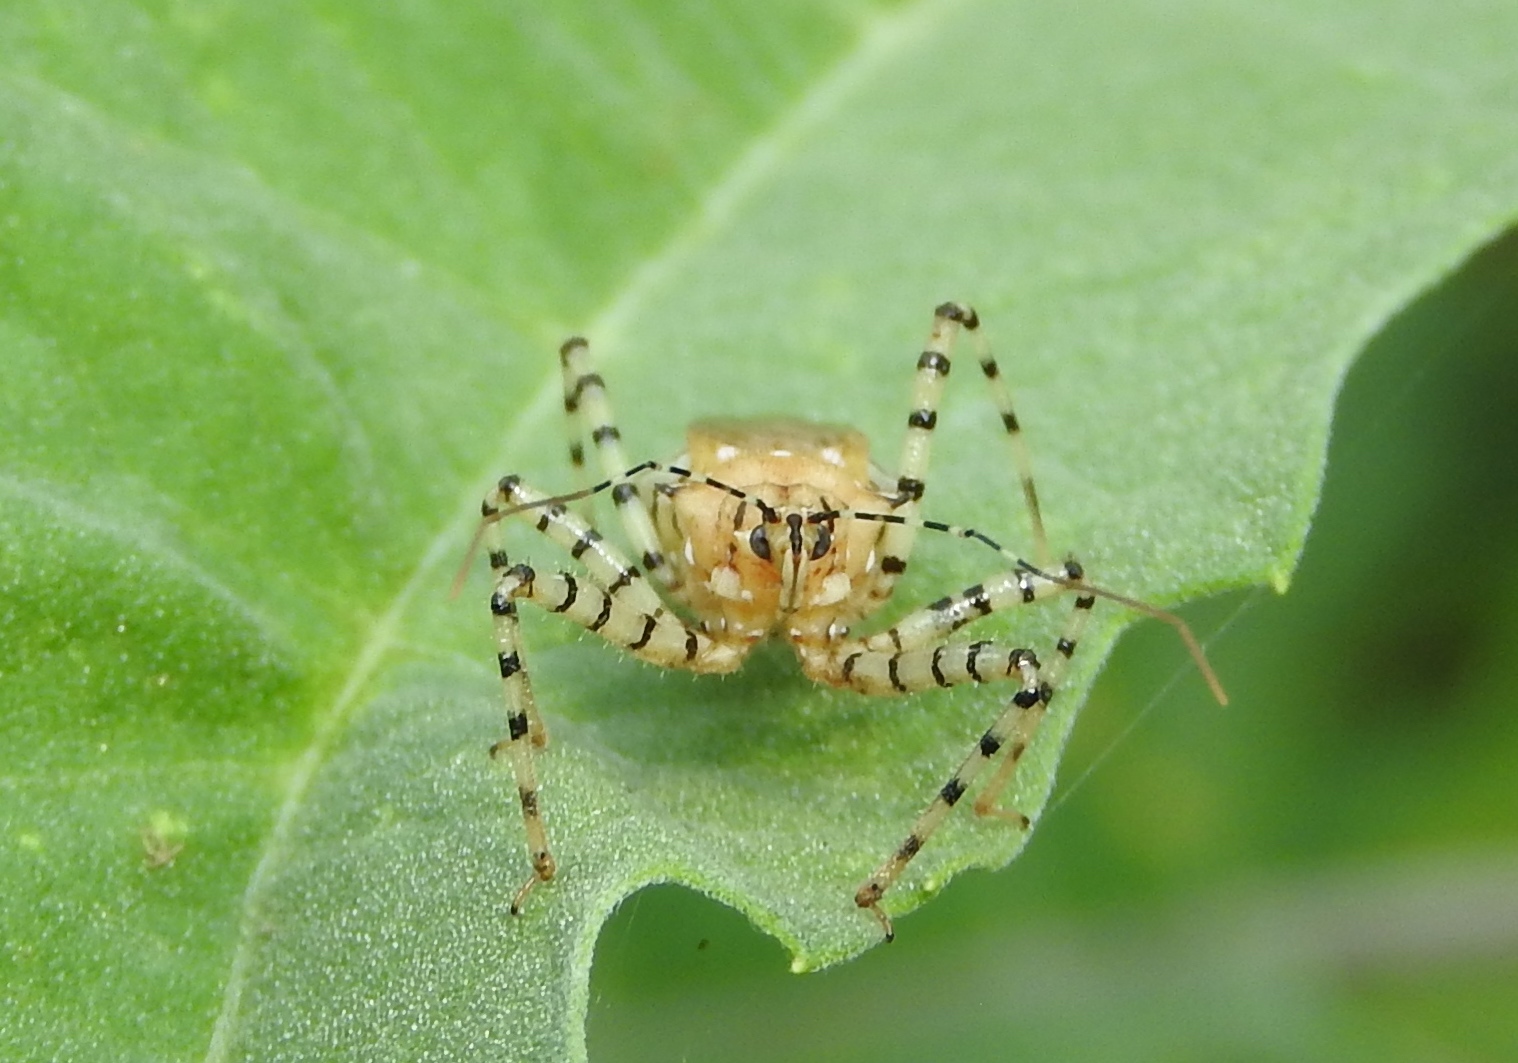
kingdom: Animalia
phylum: Arthropoda
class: Insecta
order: Hemiptera
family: Reduviidae
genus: Pselliopus
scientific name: Pselliopus
